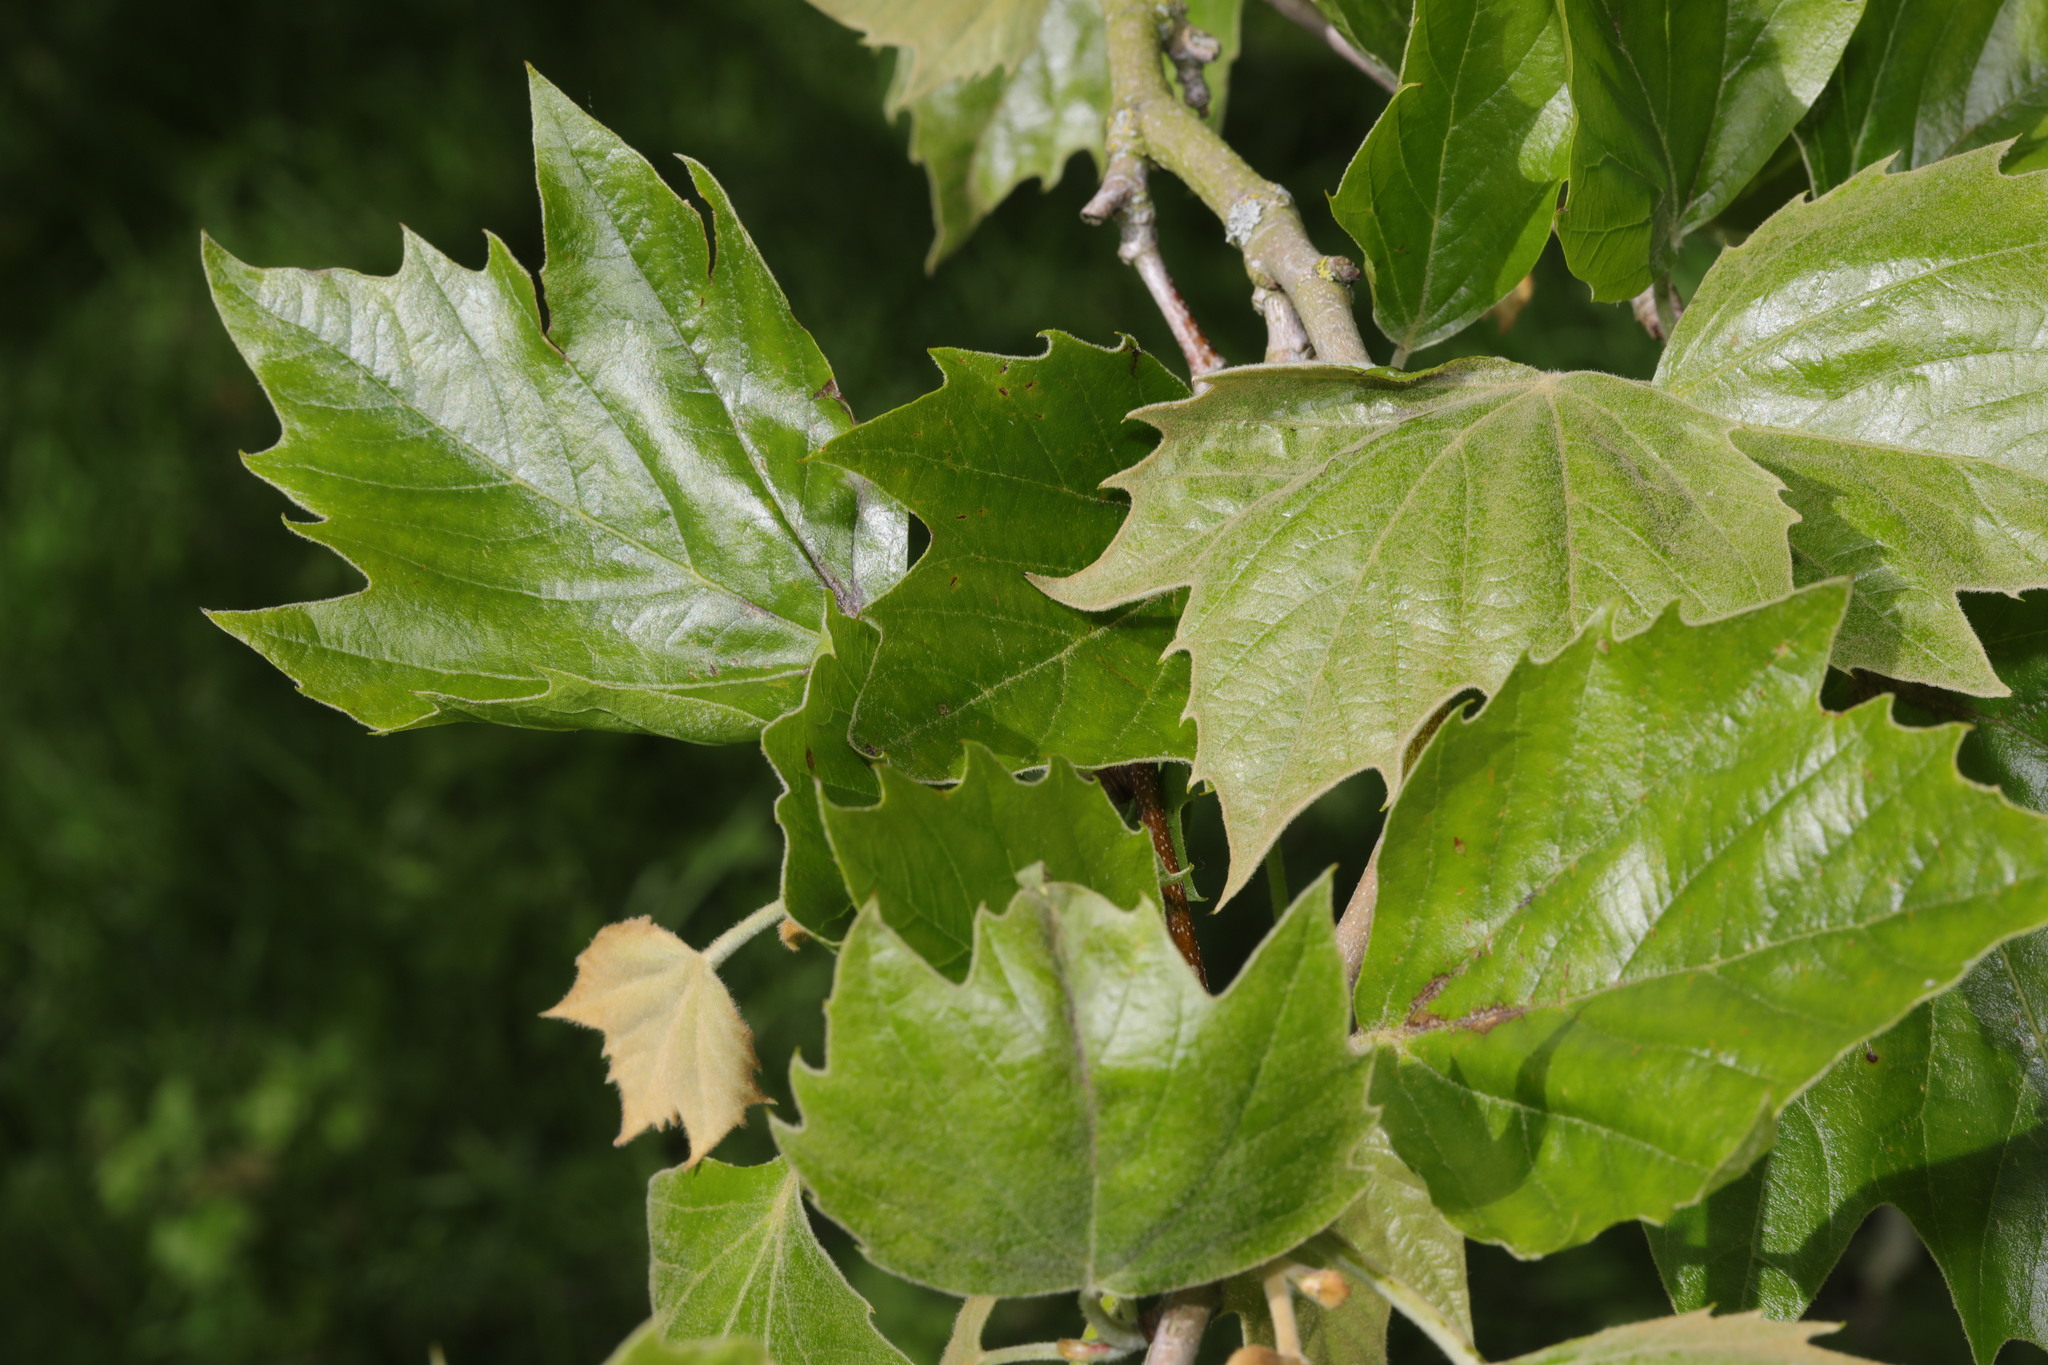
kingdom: Plantae
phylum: Tracheophyta
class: Magnoliopsida
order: Proteales
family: Platanaceae
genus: Platanus
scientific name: Platanus hispanica
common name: London plane
